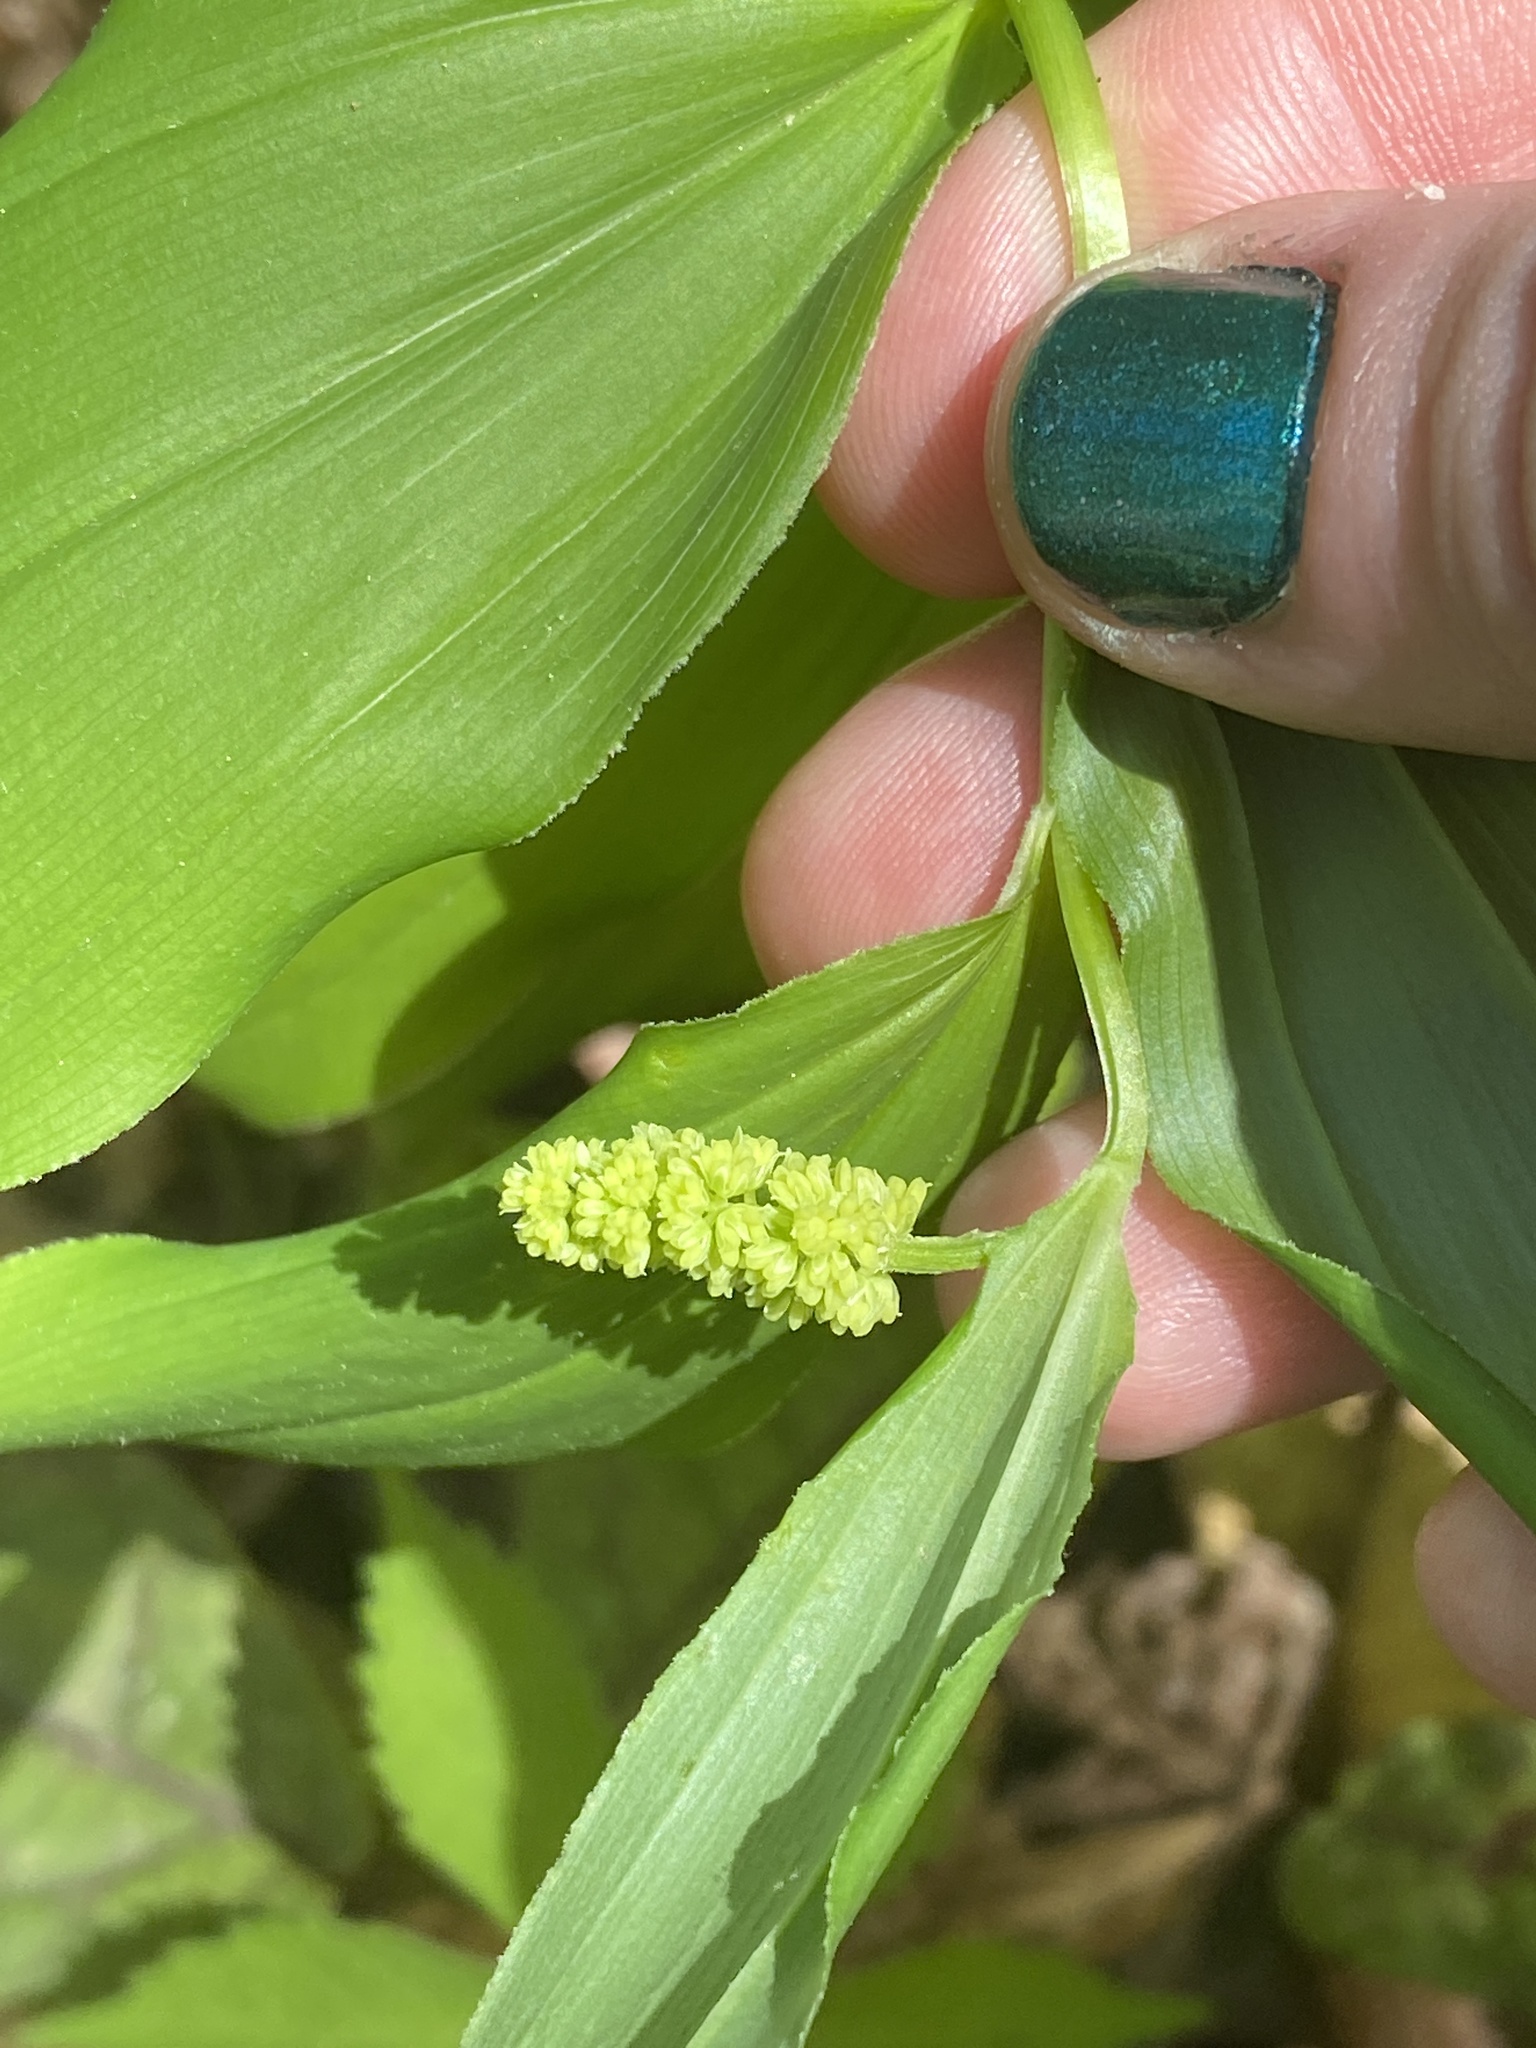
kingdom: Plantae
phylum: Tracheophyta
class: Liliopsida
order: Asparagales
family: Asparagaceae
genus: Maianthemum
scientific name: Maianthemum racemosum
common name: False spikenard
